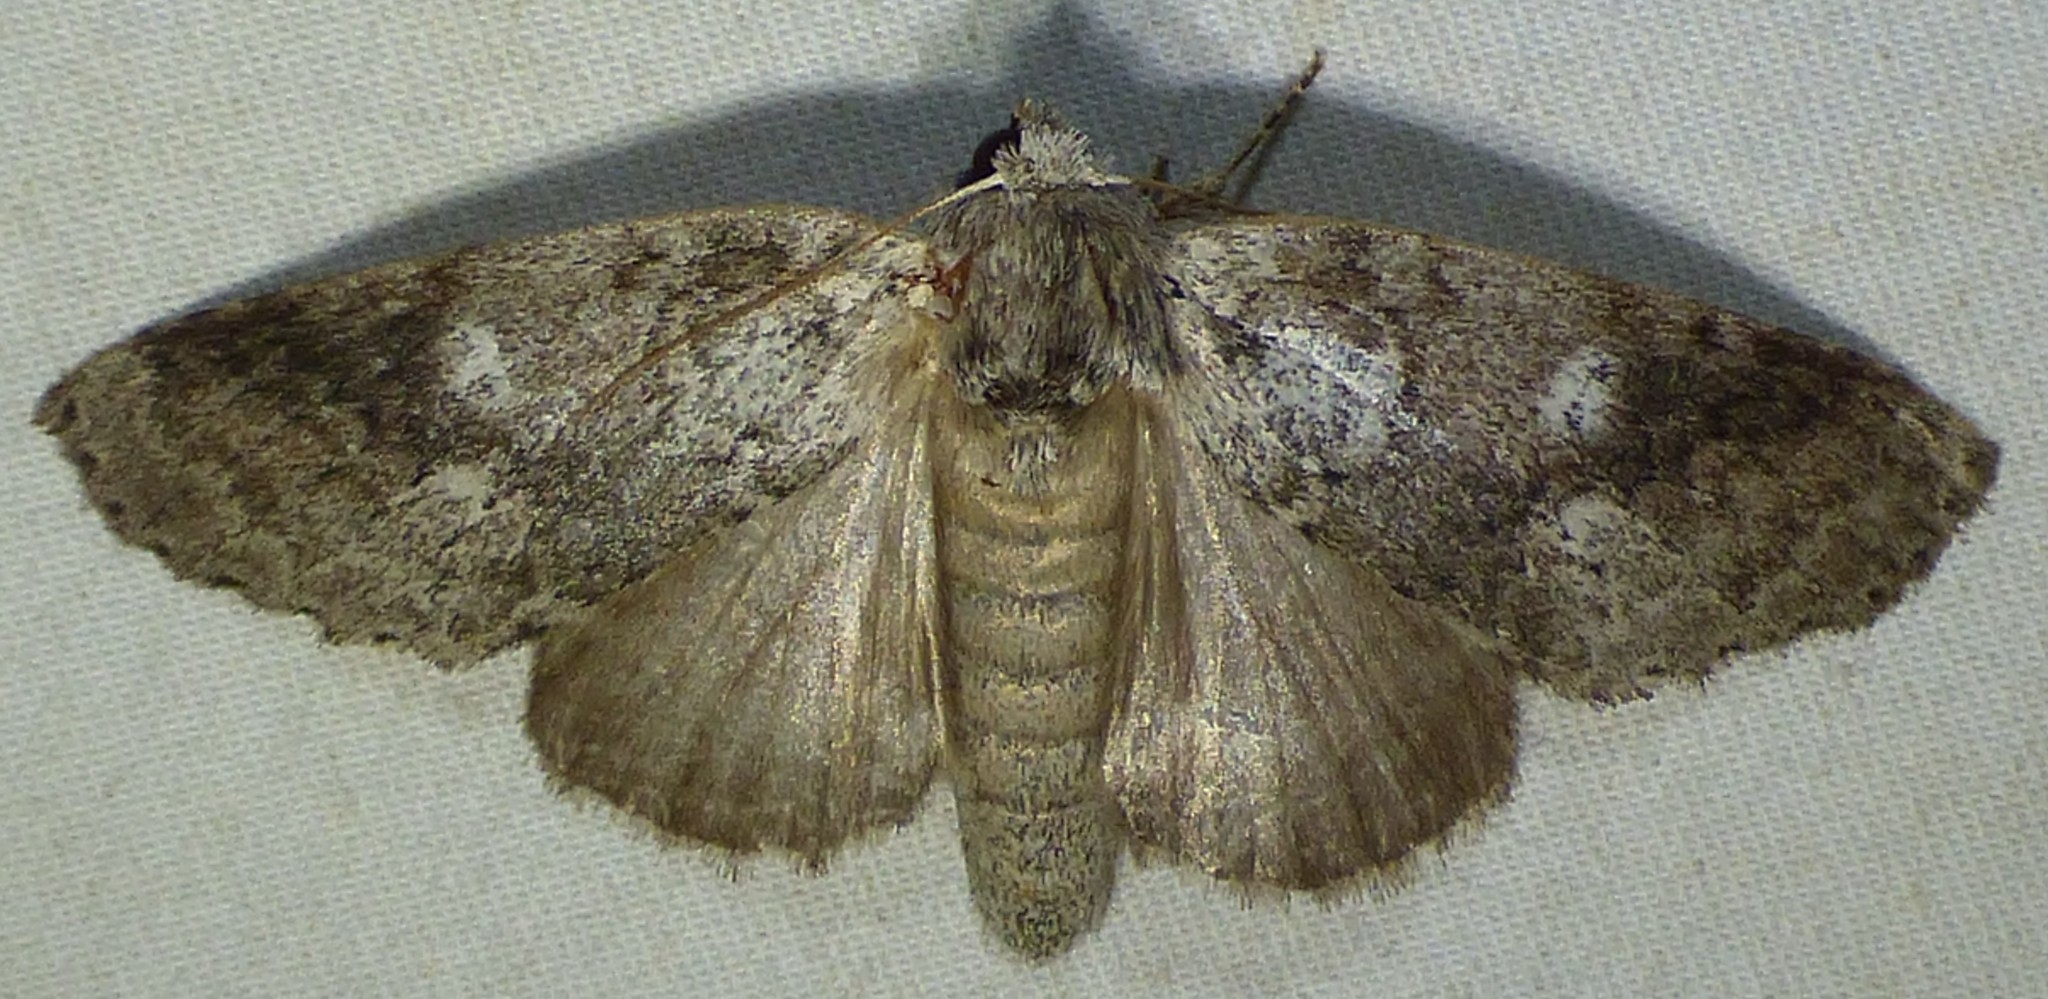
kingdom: Animalia
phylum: Arthropoda
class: Insecta
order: Lepidoptera
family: Notodontidae
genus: Lochmaeus
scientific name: Lochmaeus manteo
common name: Variable oakleaf caterpillar moth
